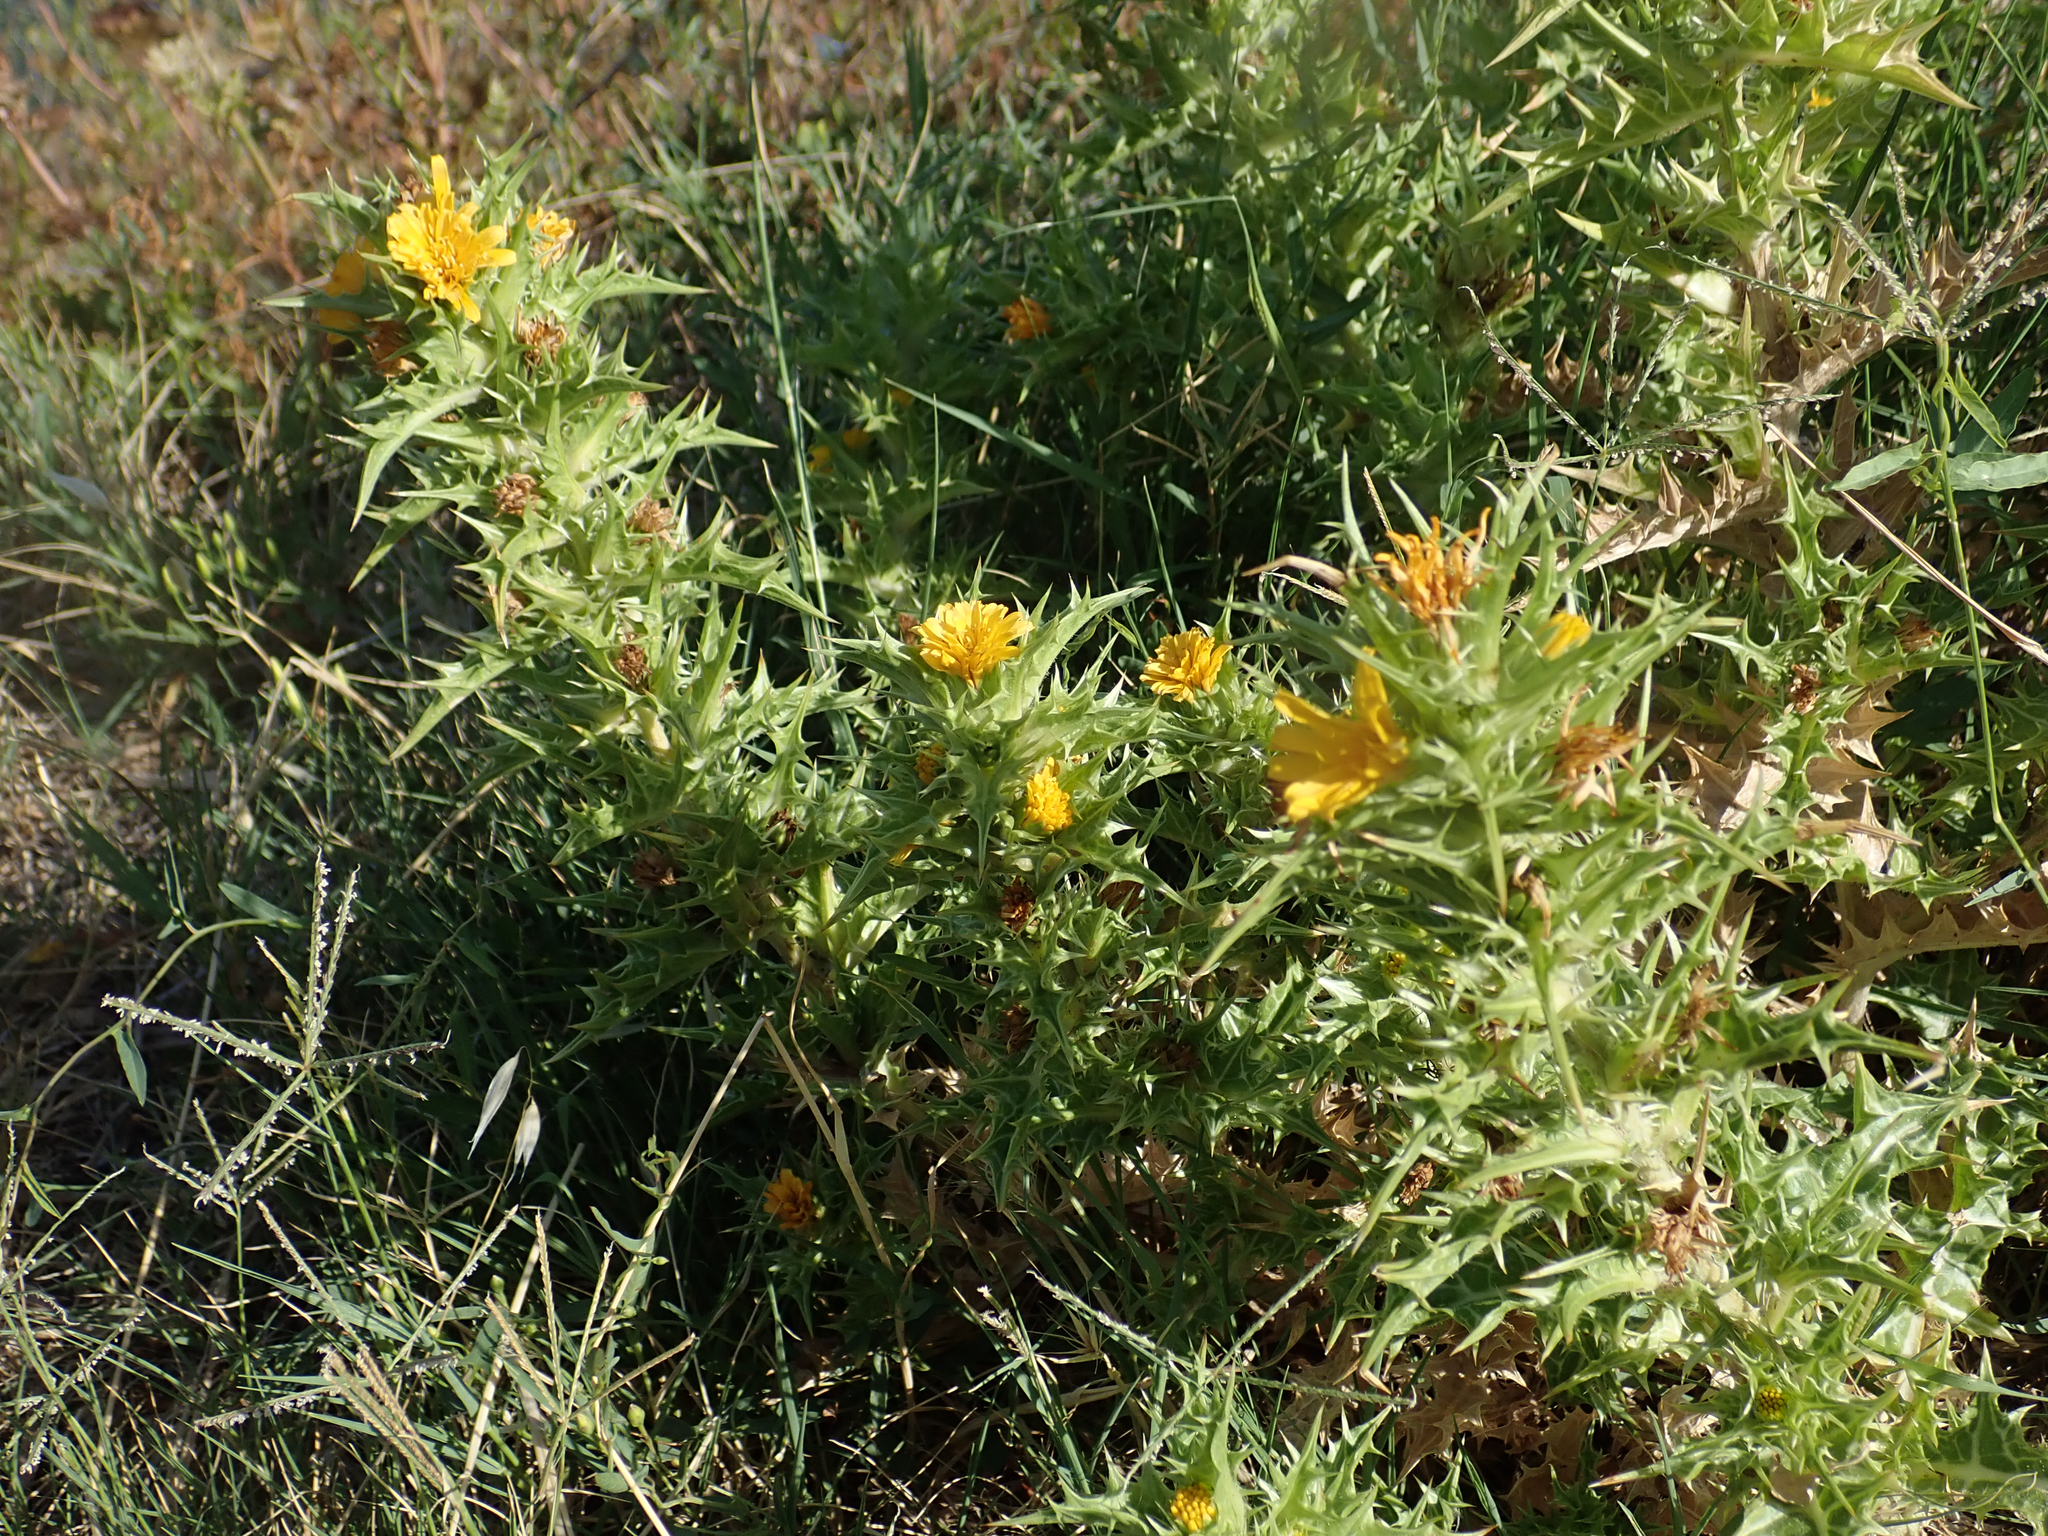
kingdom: Plantae
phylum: Tracheophyta
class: Magnoliopsida
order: Asterales
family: Asteraceae
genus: Scolymus
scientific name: Scolymus hispanicus
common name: Golden thistle
